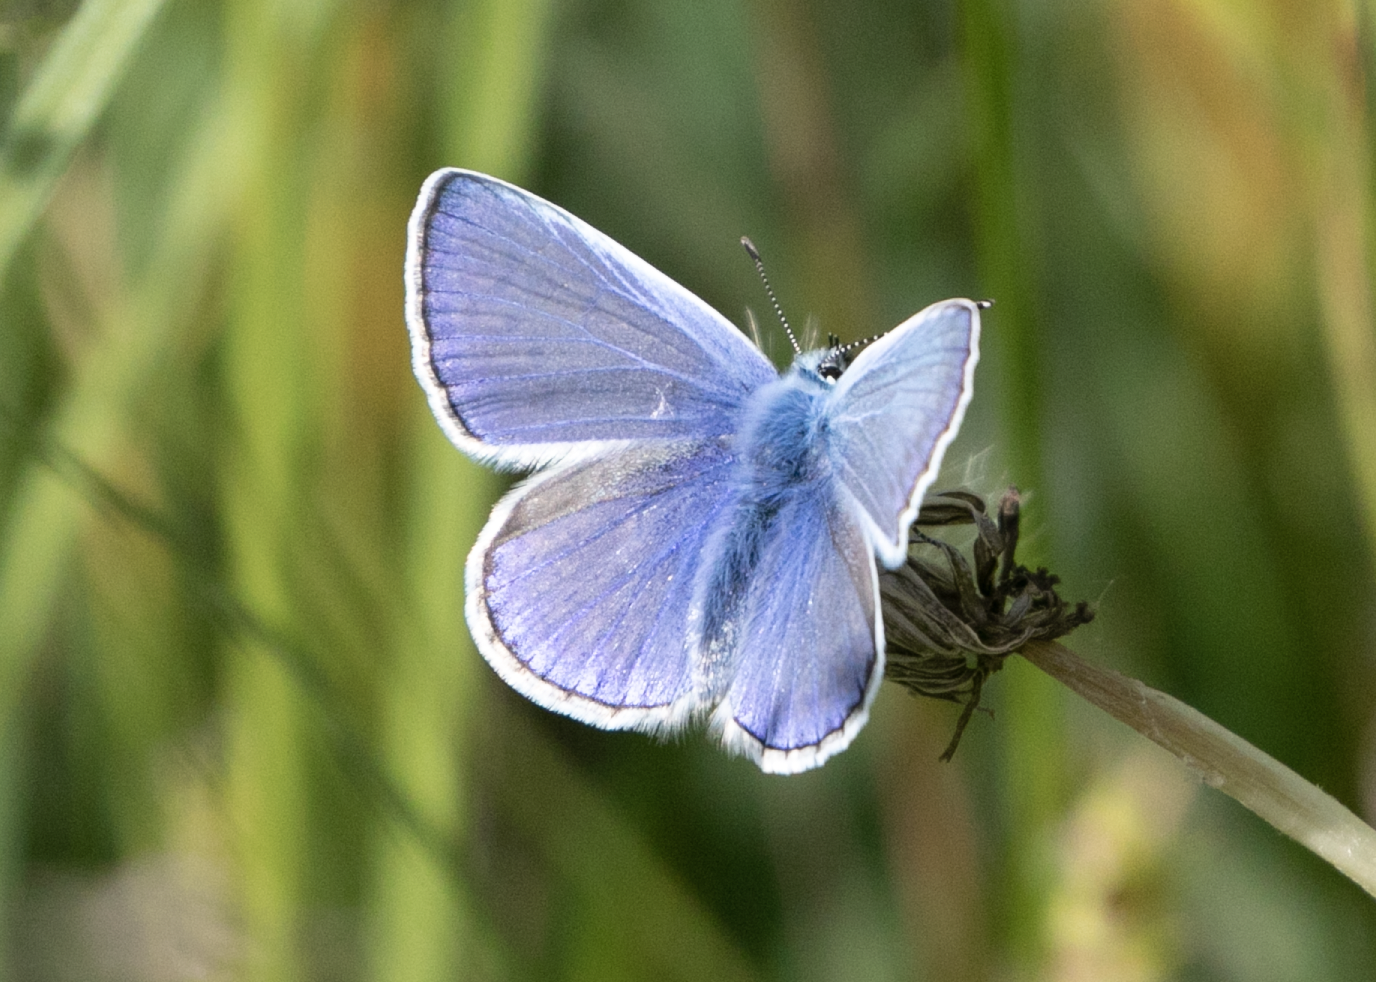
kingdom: Animalia
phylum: Arthropoda
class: Insecta
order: Lepidoptera
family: Lycaenidae
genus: Polyommatus
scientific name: Polyommatus icarus
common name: Common blue
